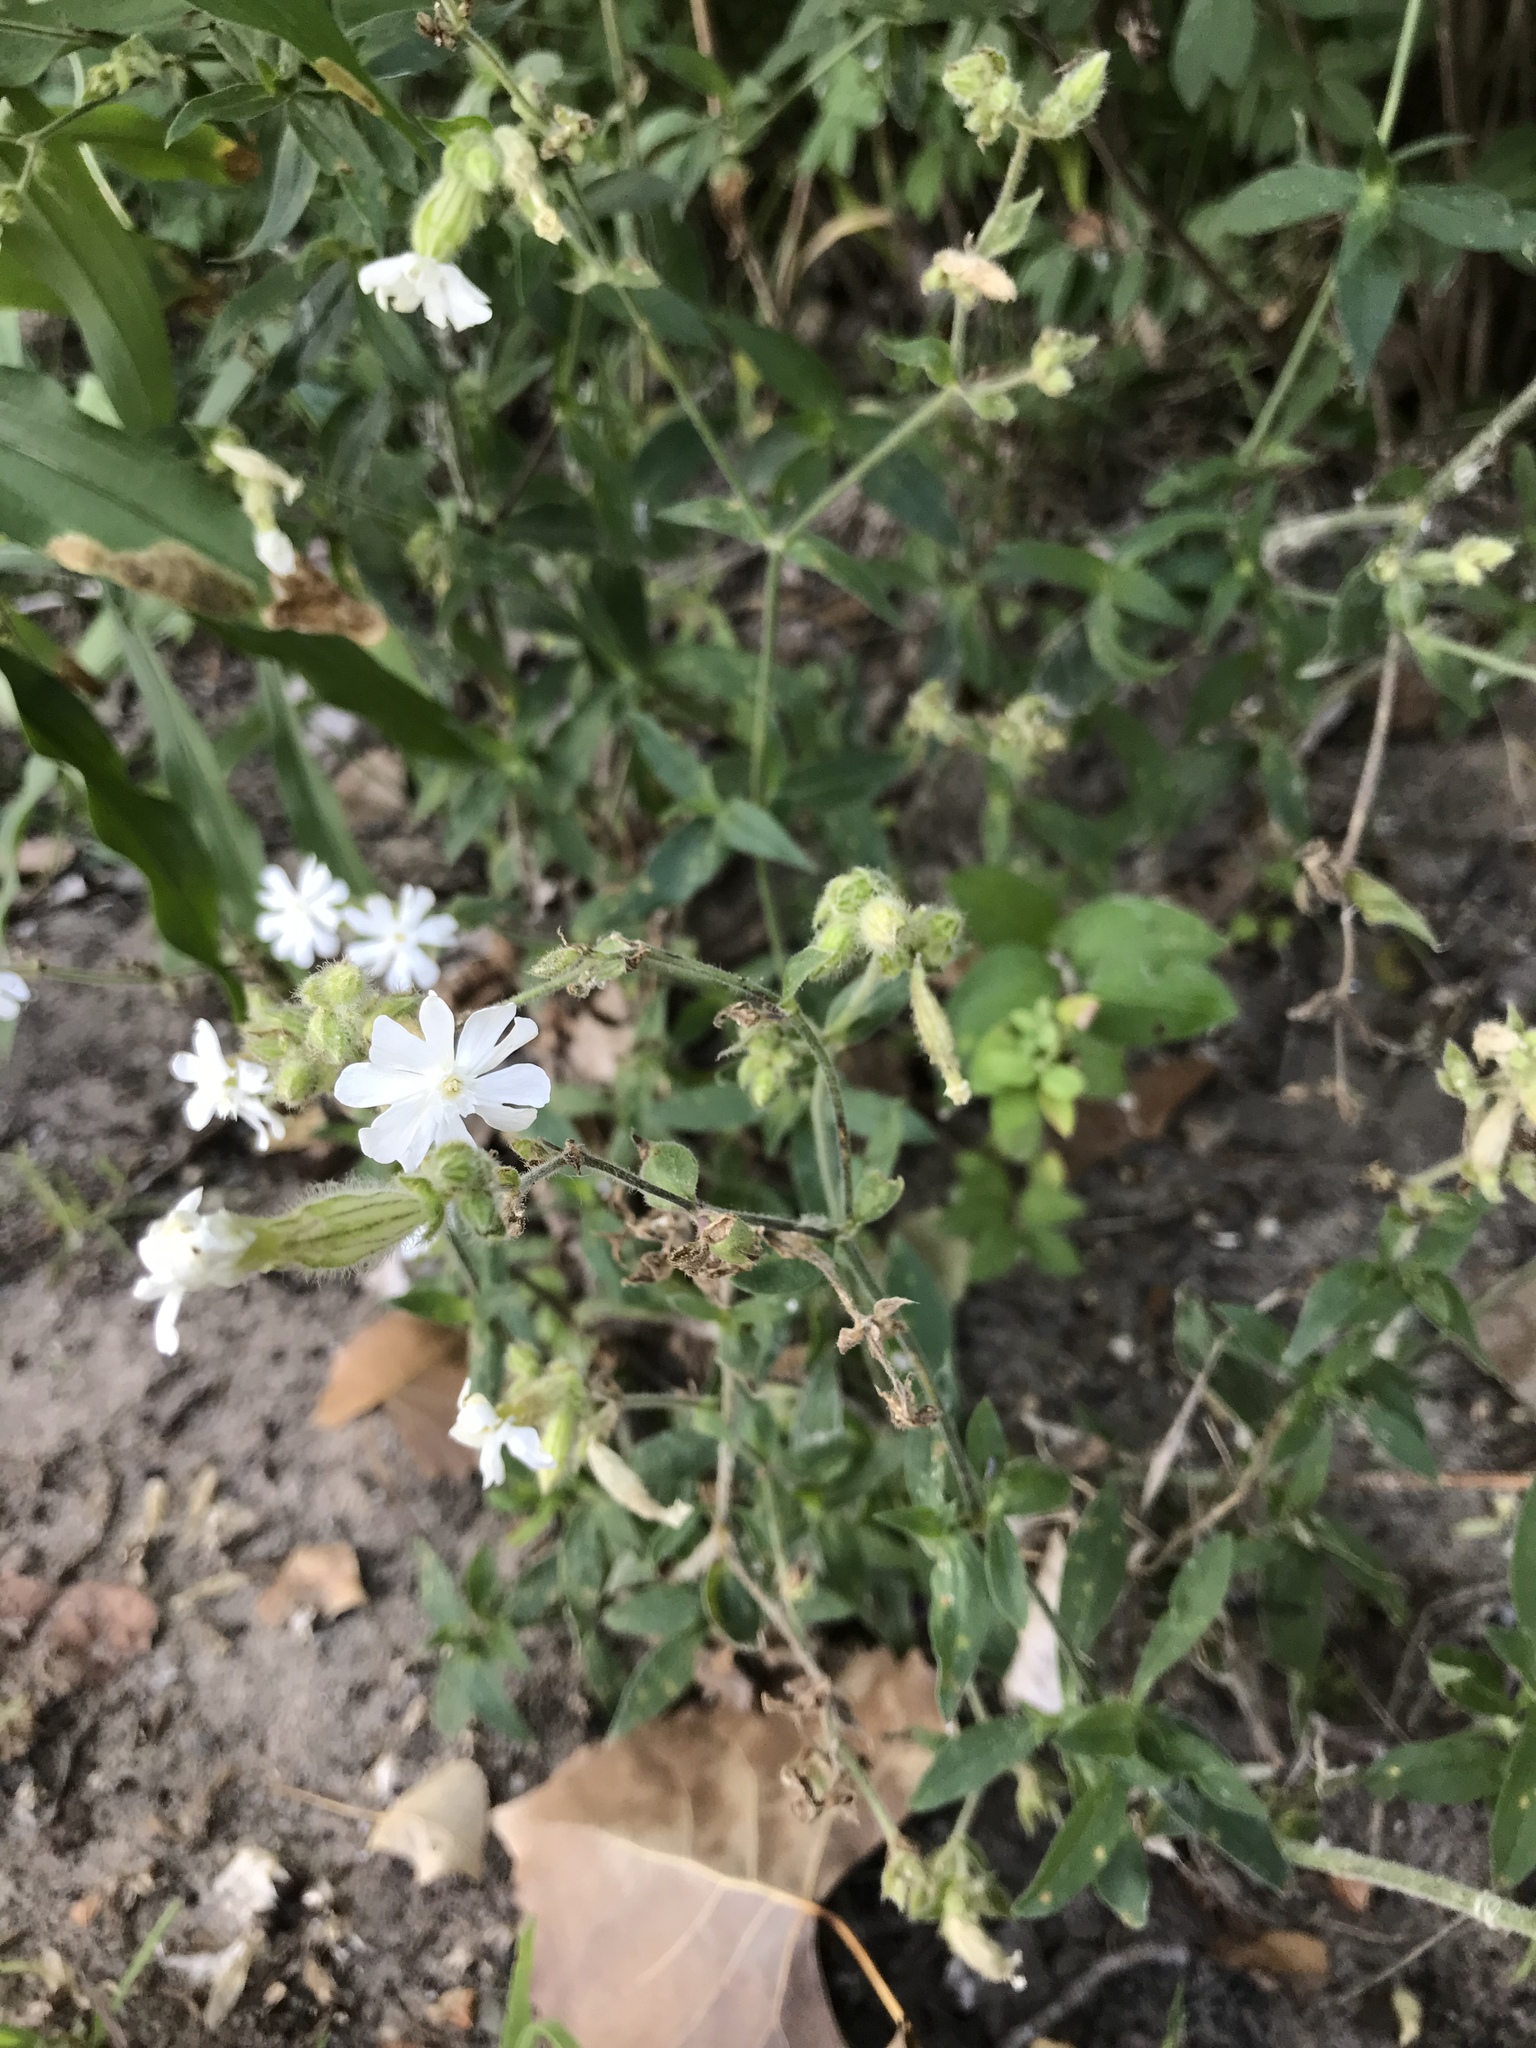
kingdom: Plantae
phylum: Tracheophyta
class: Magnoliopsida
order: Caryophyllales
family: Caryophyllaceae
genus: Silene
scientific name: Silene latifolia
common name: White campion
